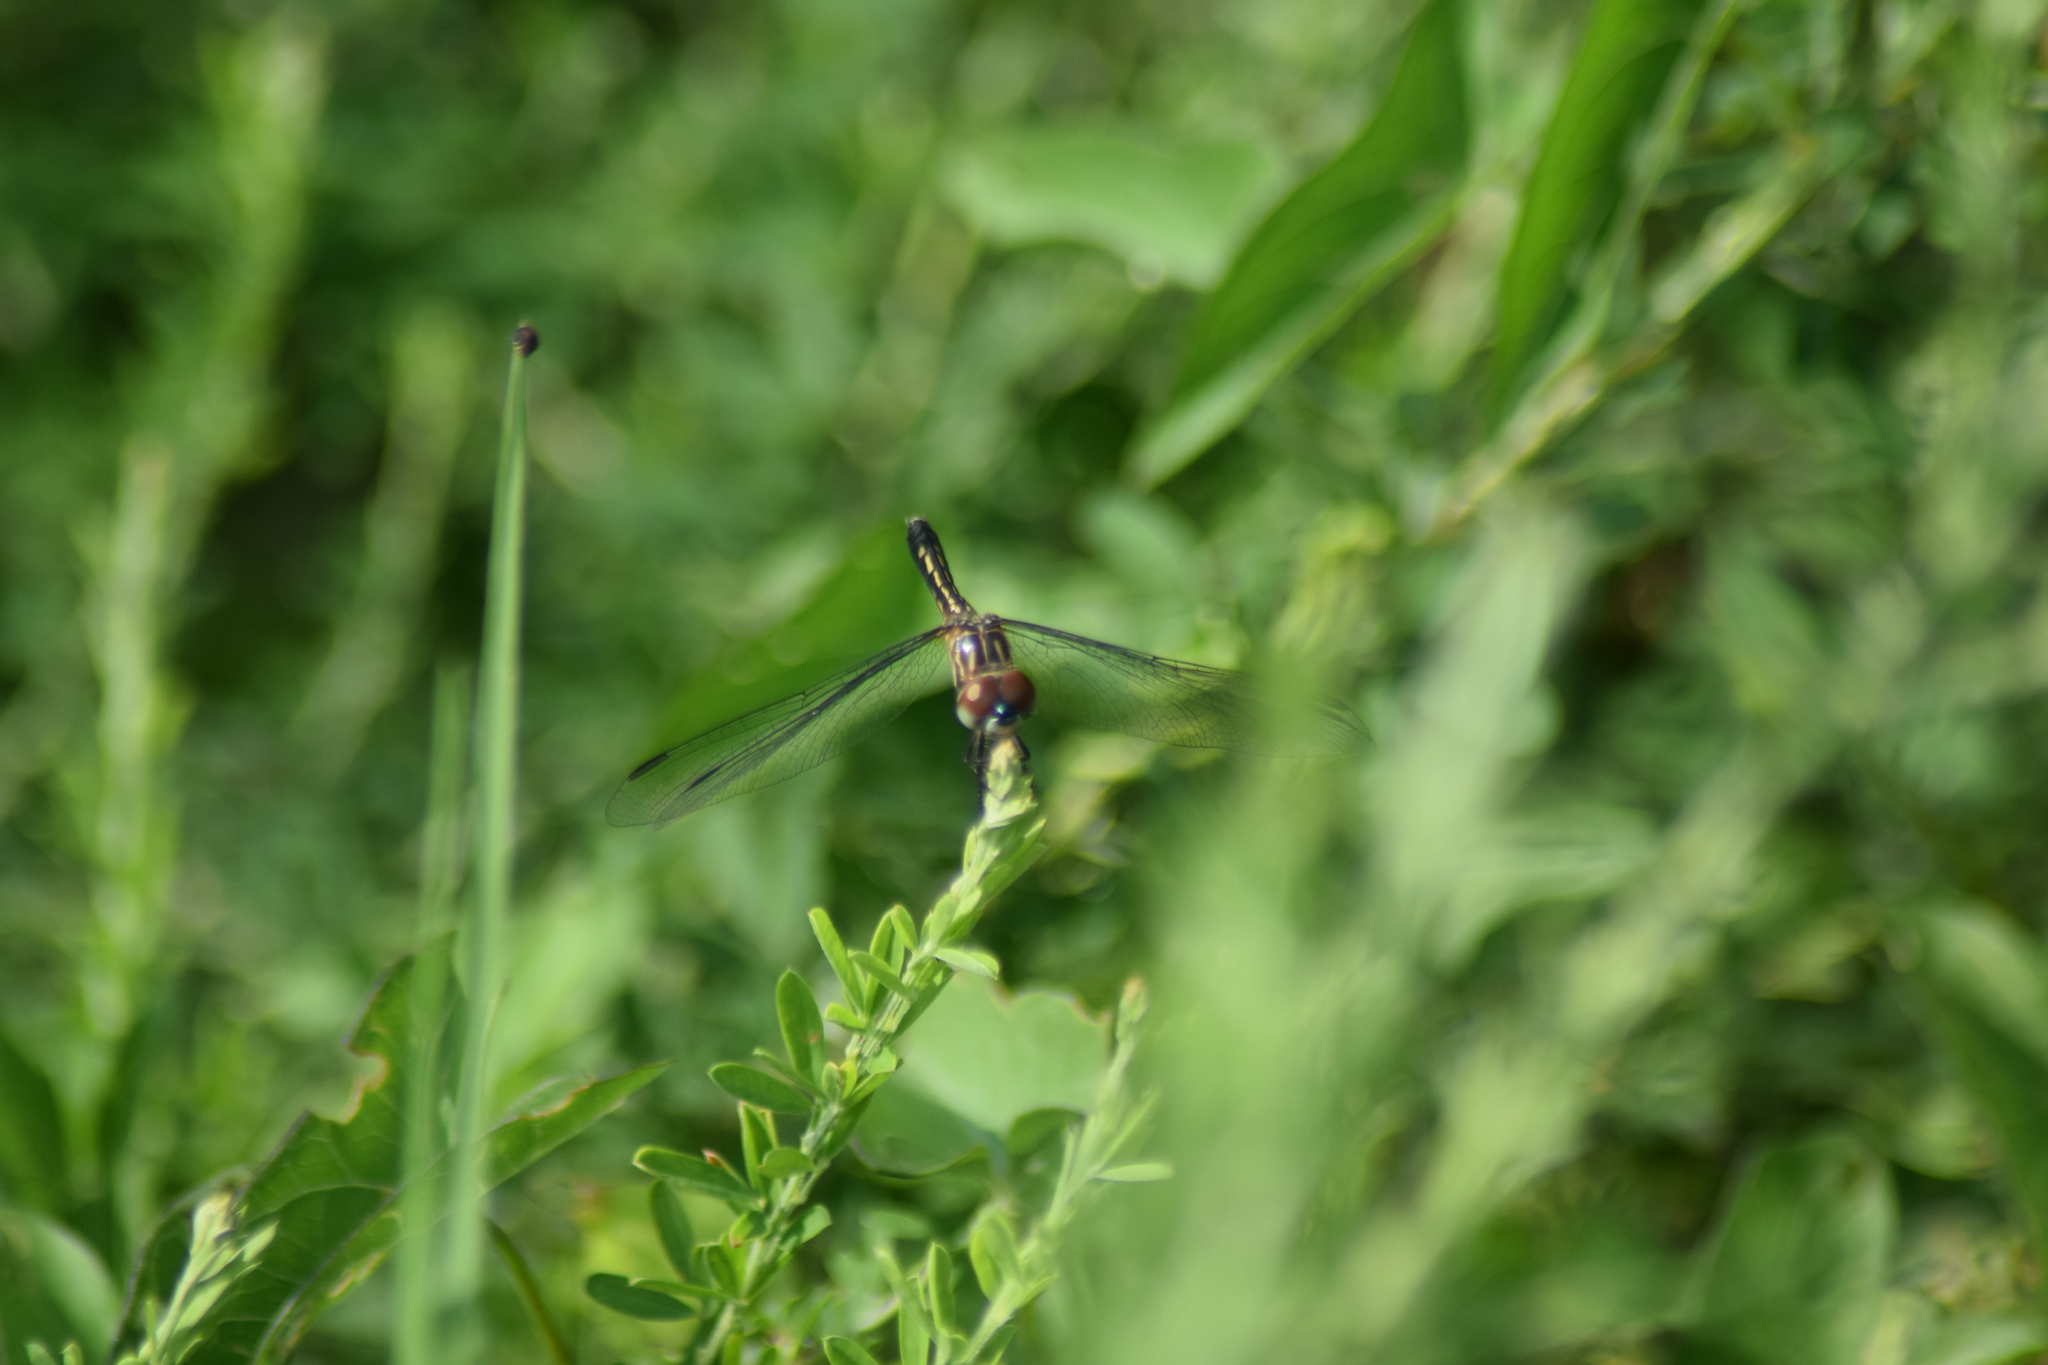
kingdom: Animalia
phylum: Arthropoda
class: Insecta
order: Odonata
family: Libellulidae
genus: Pachydiplax
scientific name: Pachydiplax longipennis
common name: Blue dasher
